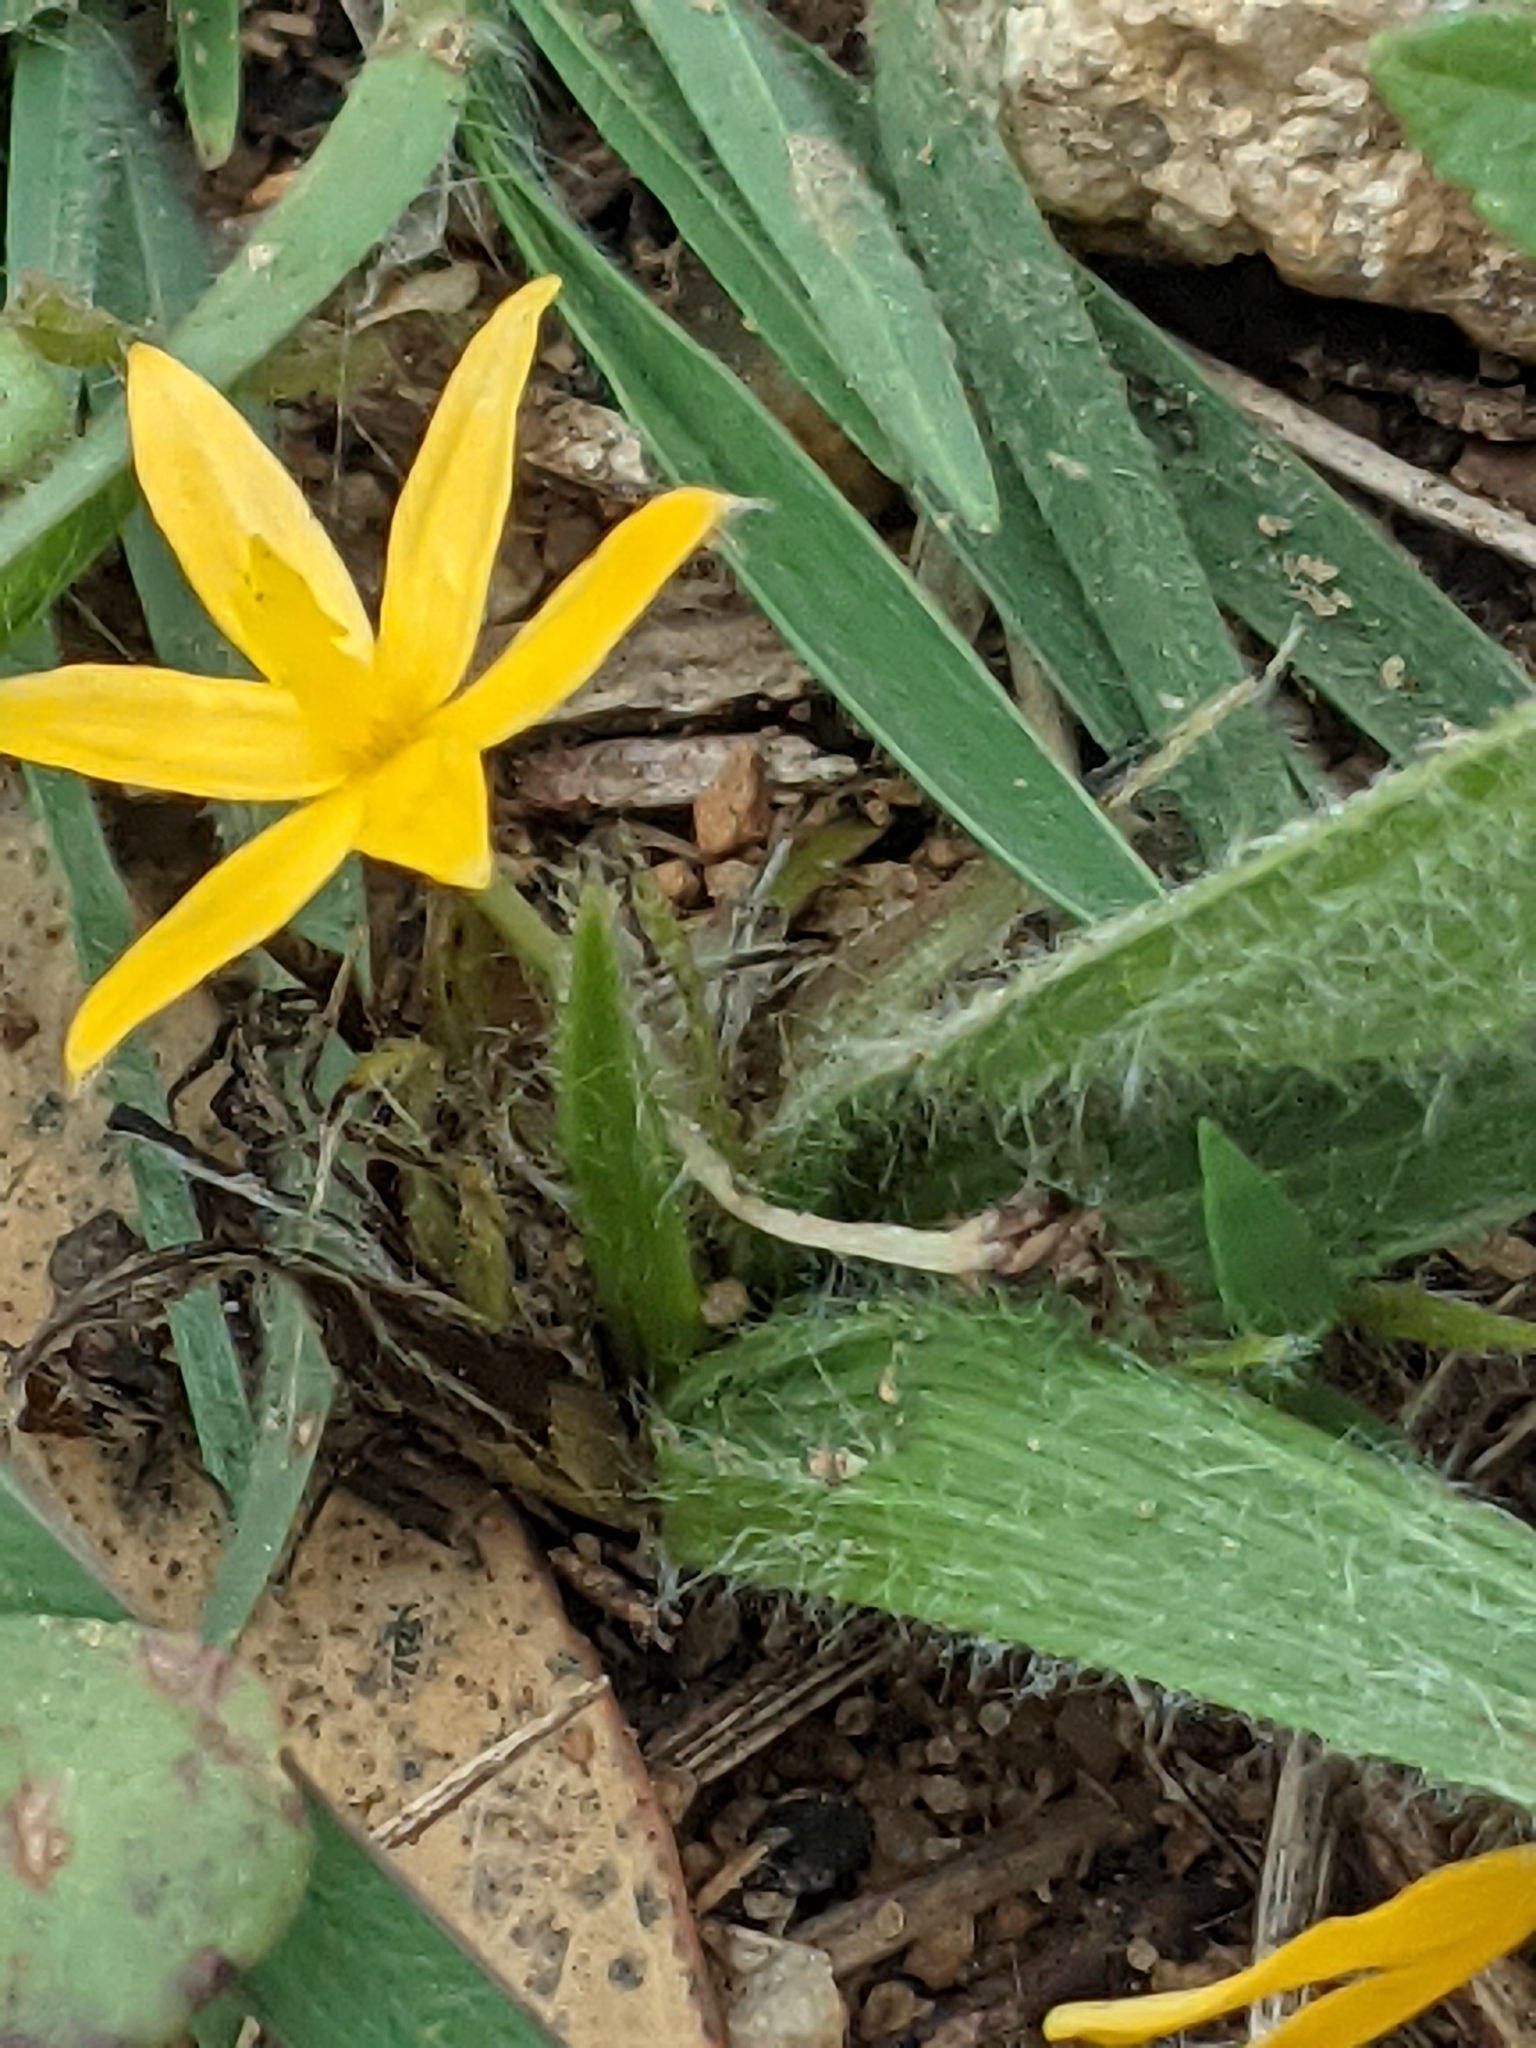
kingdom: Plantae
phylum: Tracheophyta
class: Liliopsida
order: Asparagales
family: Hypoxidaceae
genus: Curculigo
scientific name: Curculigo orchioides
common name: Golden eye-grass
